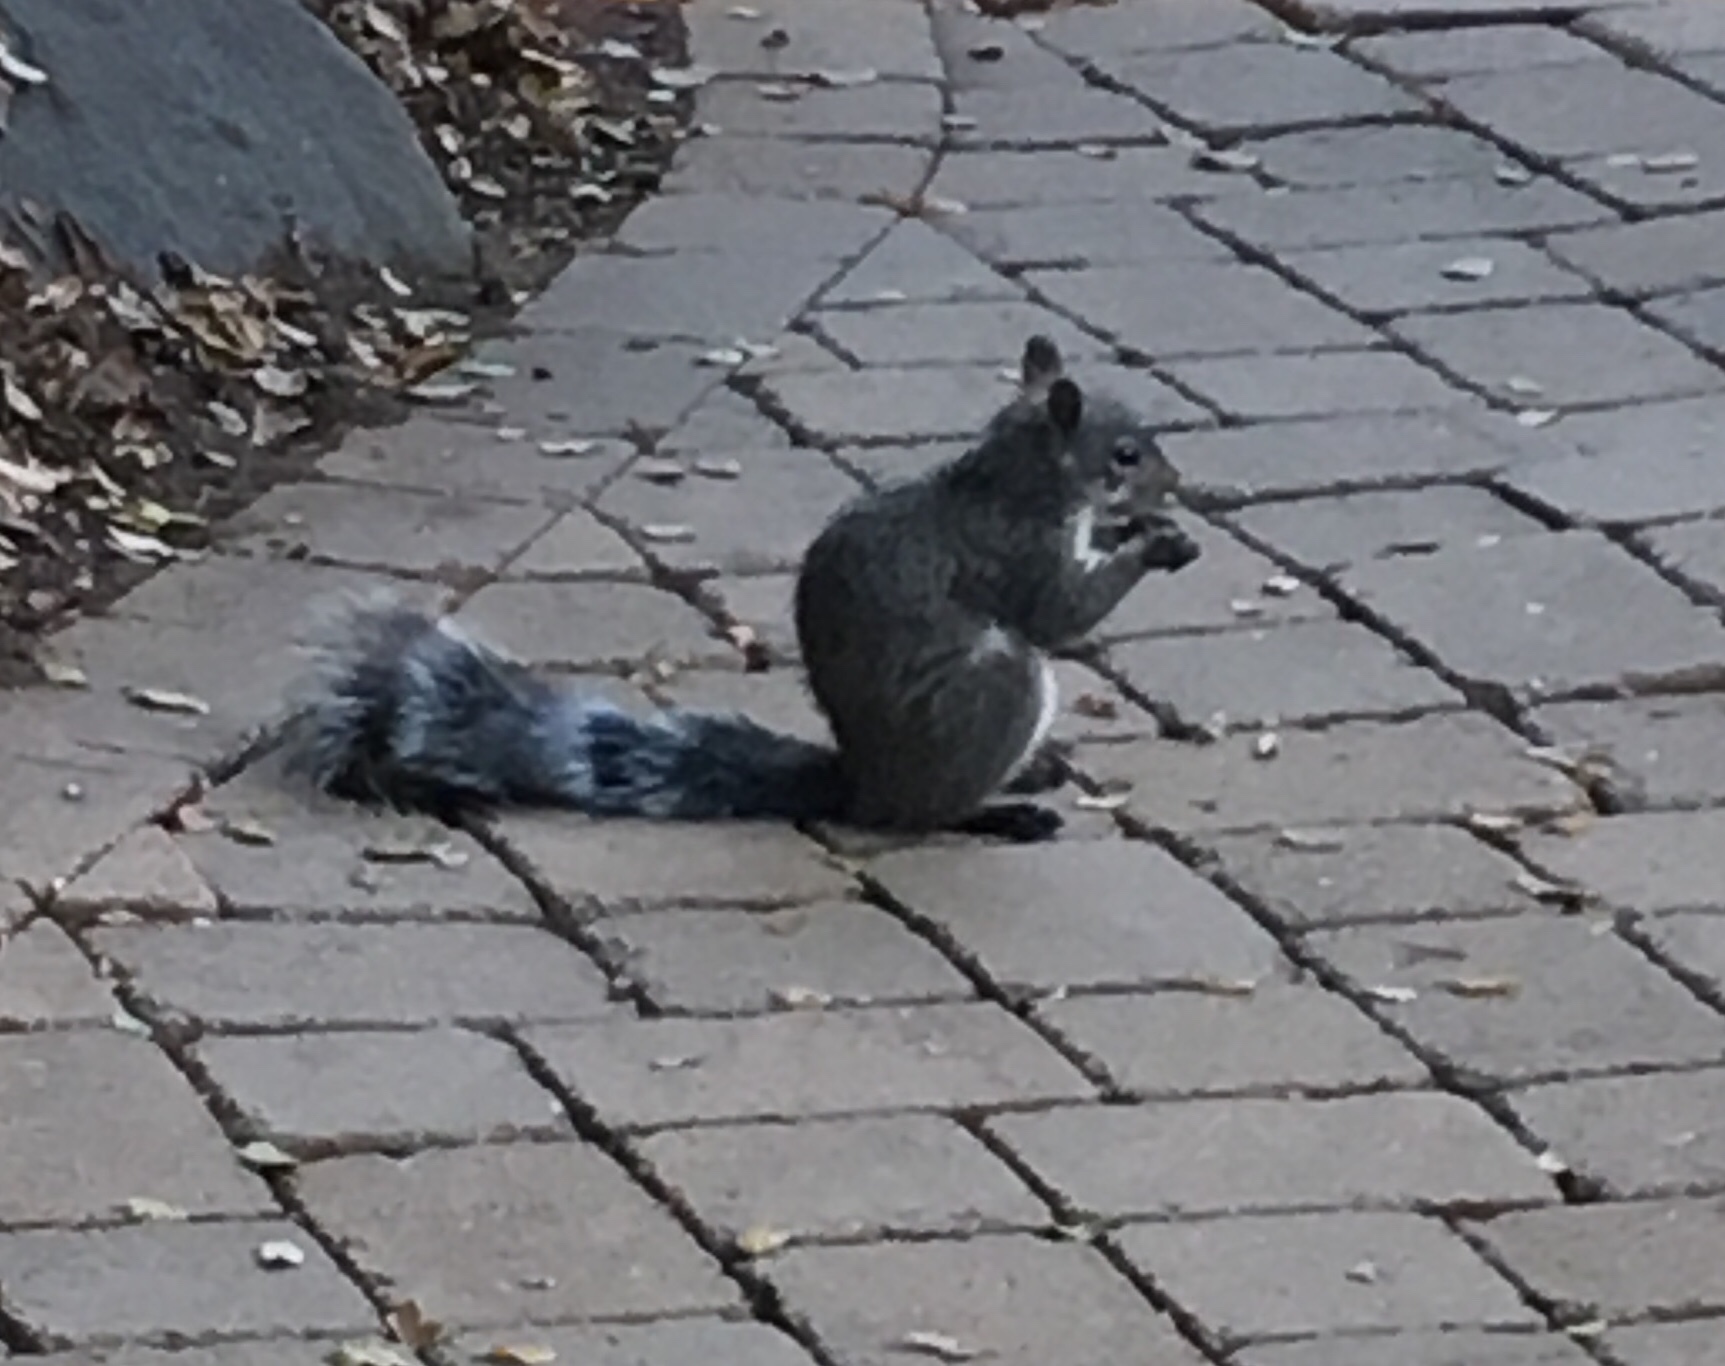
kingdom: Animalia
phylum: Chordata
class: Mammalia
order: Rodentia
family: Sciuridae
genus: Sciurus
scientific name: Sciurus griseus
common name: Western gray squirrel
